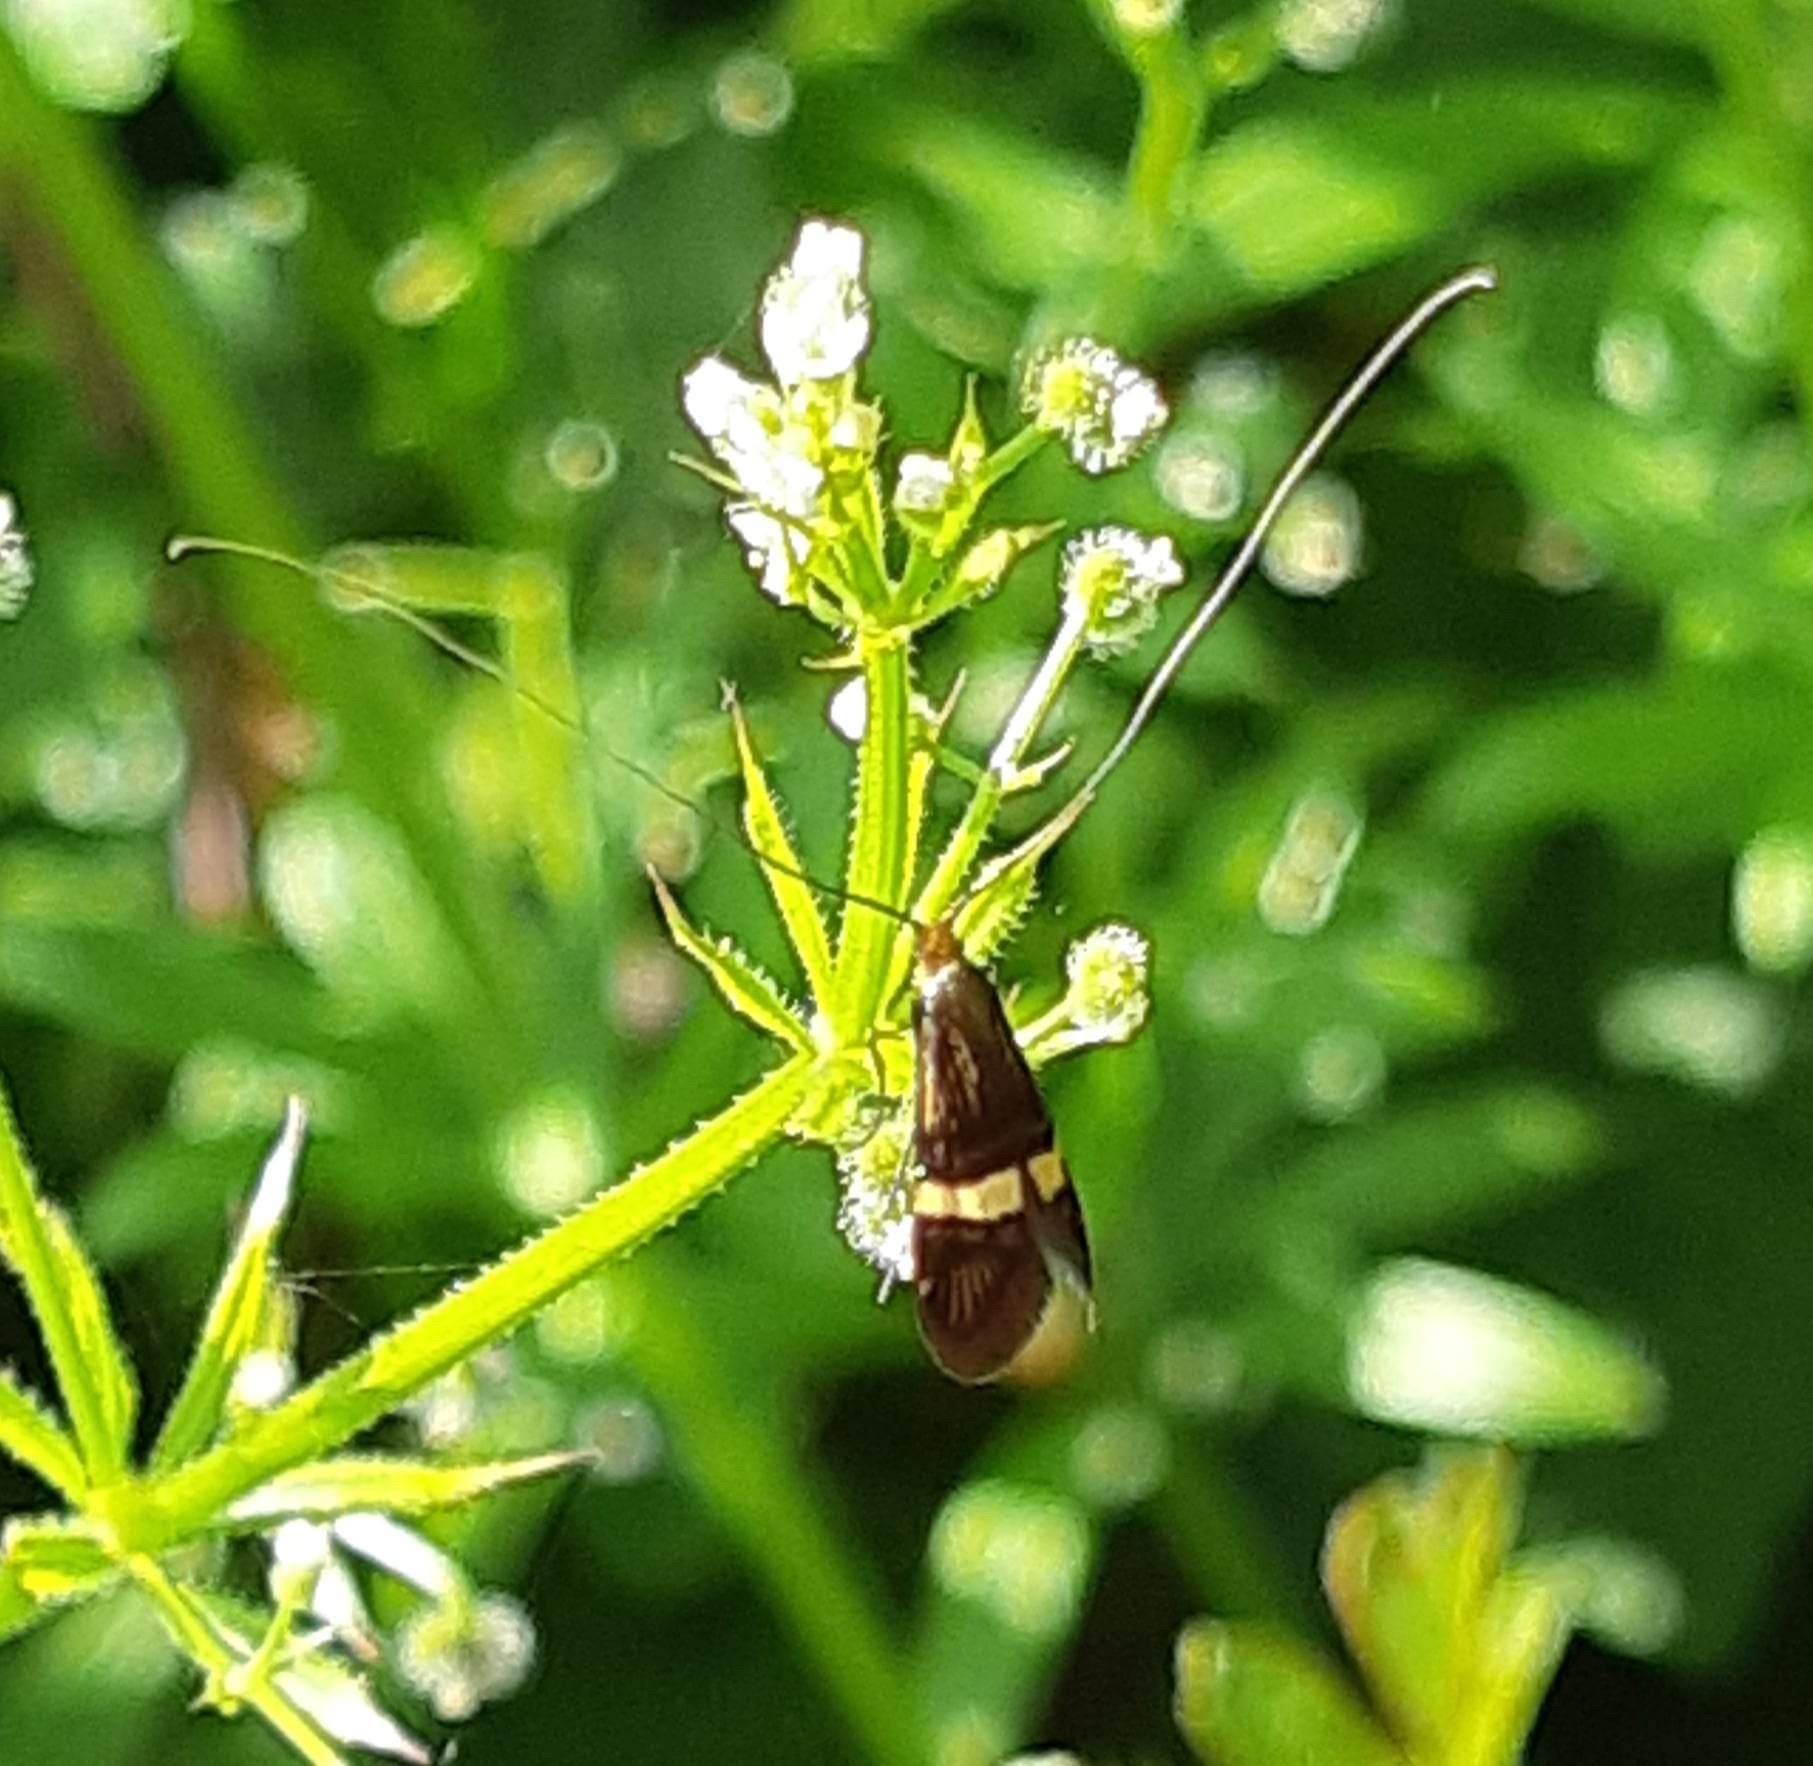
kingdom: Animalia
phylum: Arthropoda
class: Insecta
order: Lepidoptera
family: Adelidae
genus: Adela
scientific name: Adela croesella
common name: Small barred long-horn
